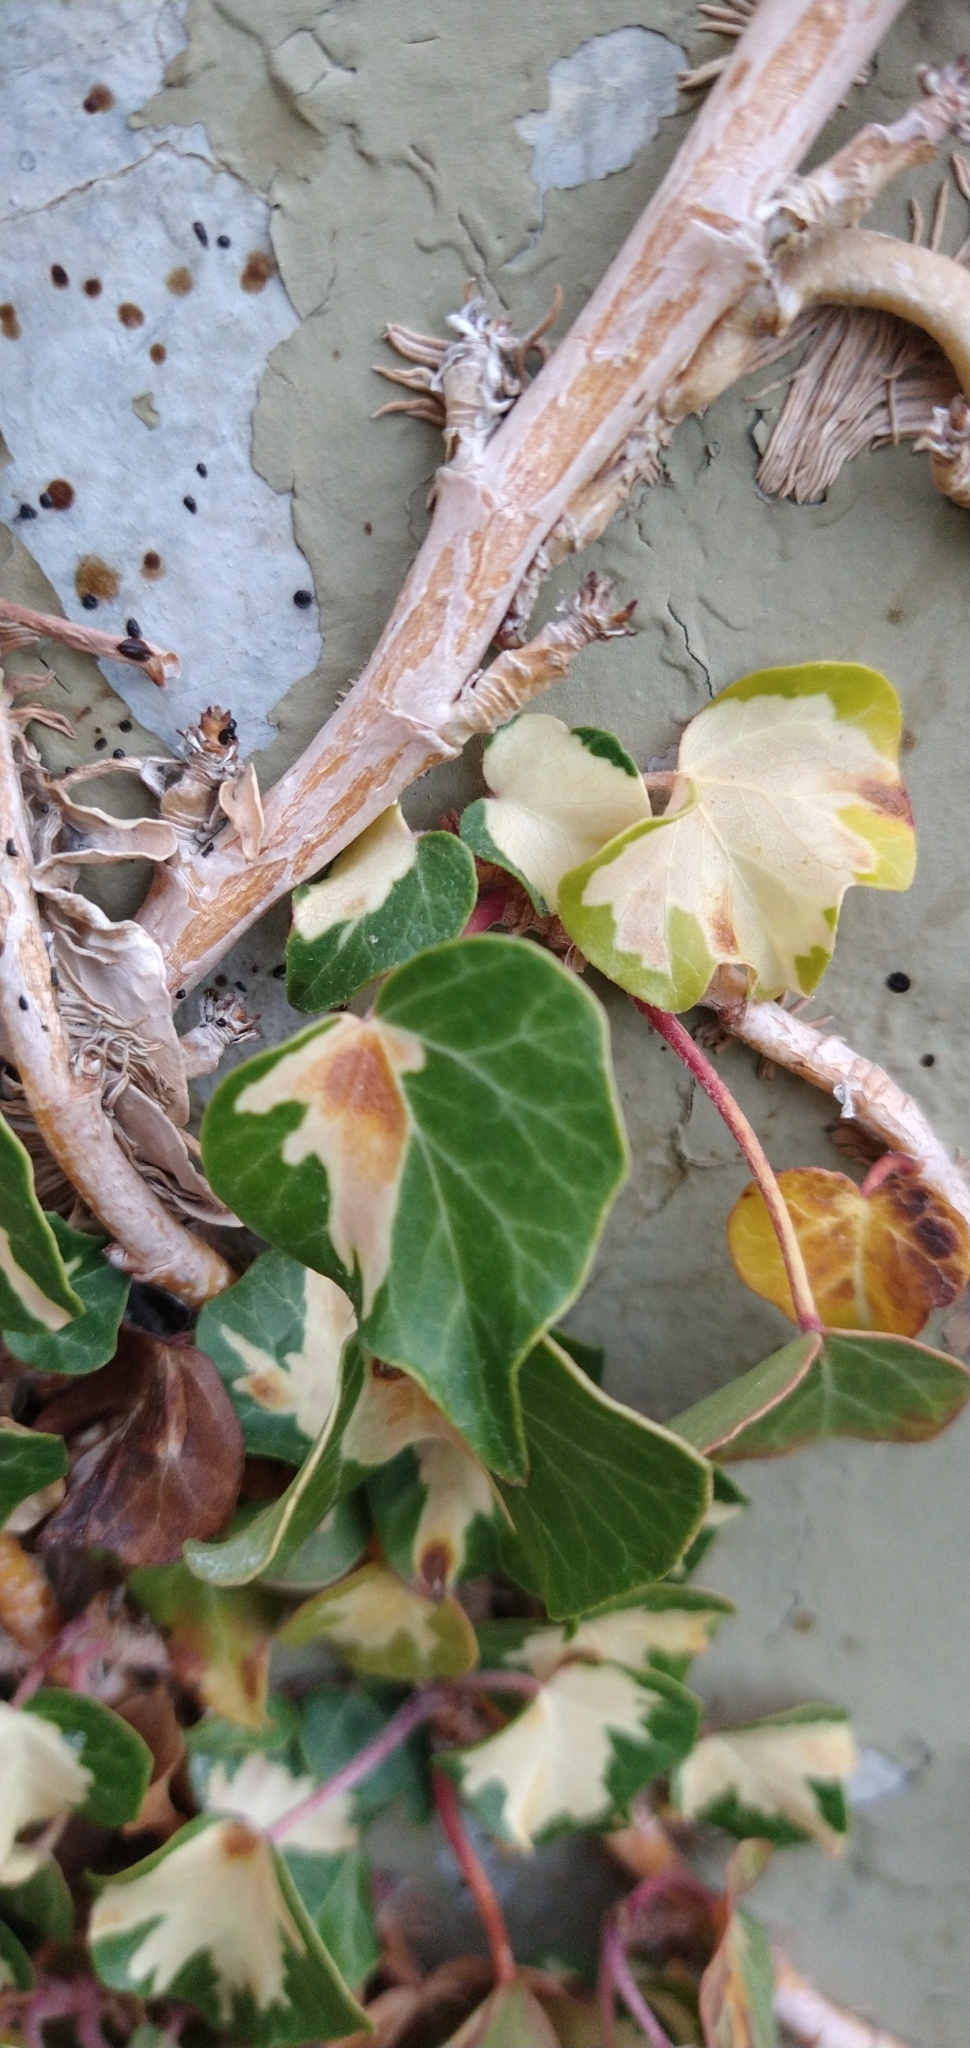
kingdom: Plantae
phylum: Tracheophyta
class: Magnoliopsida
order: Apiales
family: Araliaceae
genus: Hedera
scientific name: Hedera helix
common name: Ivy
